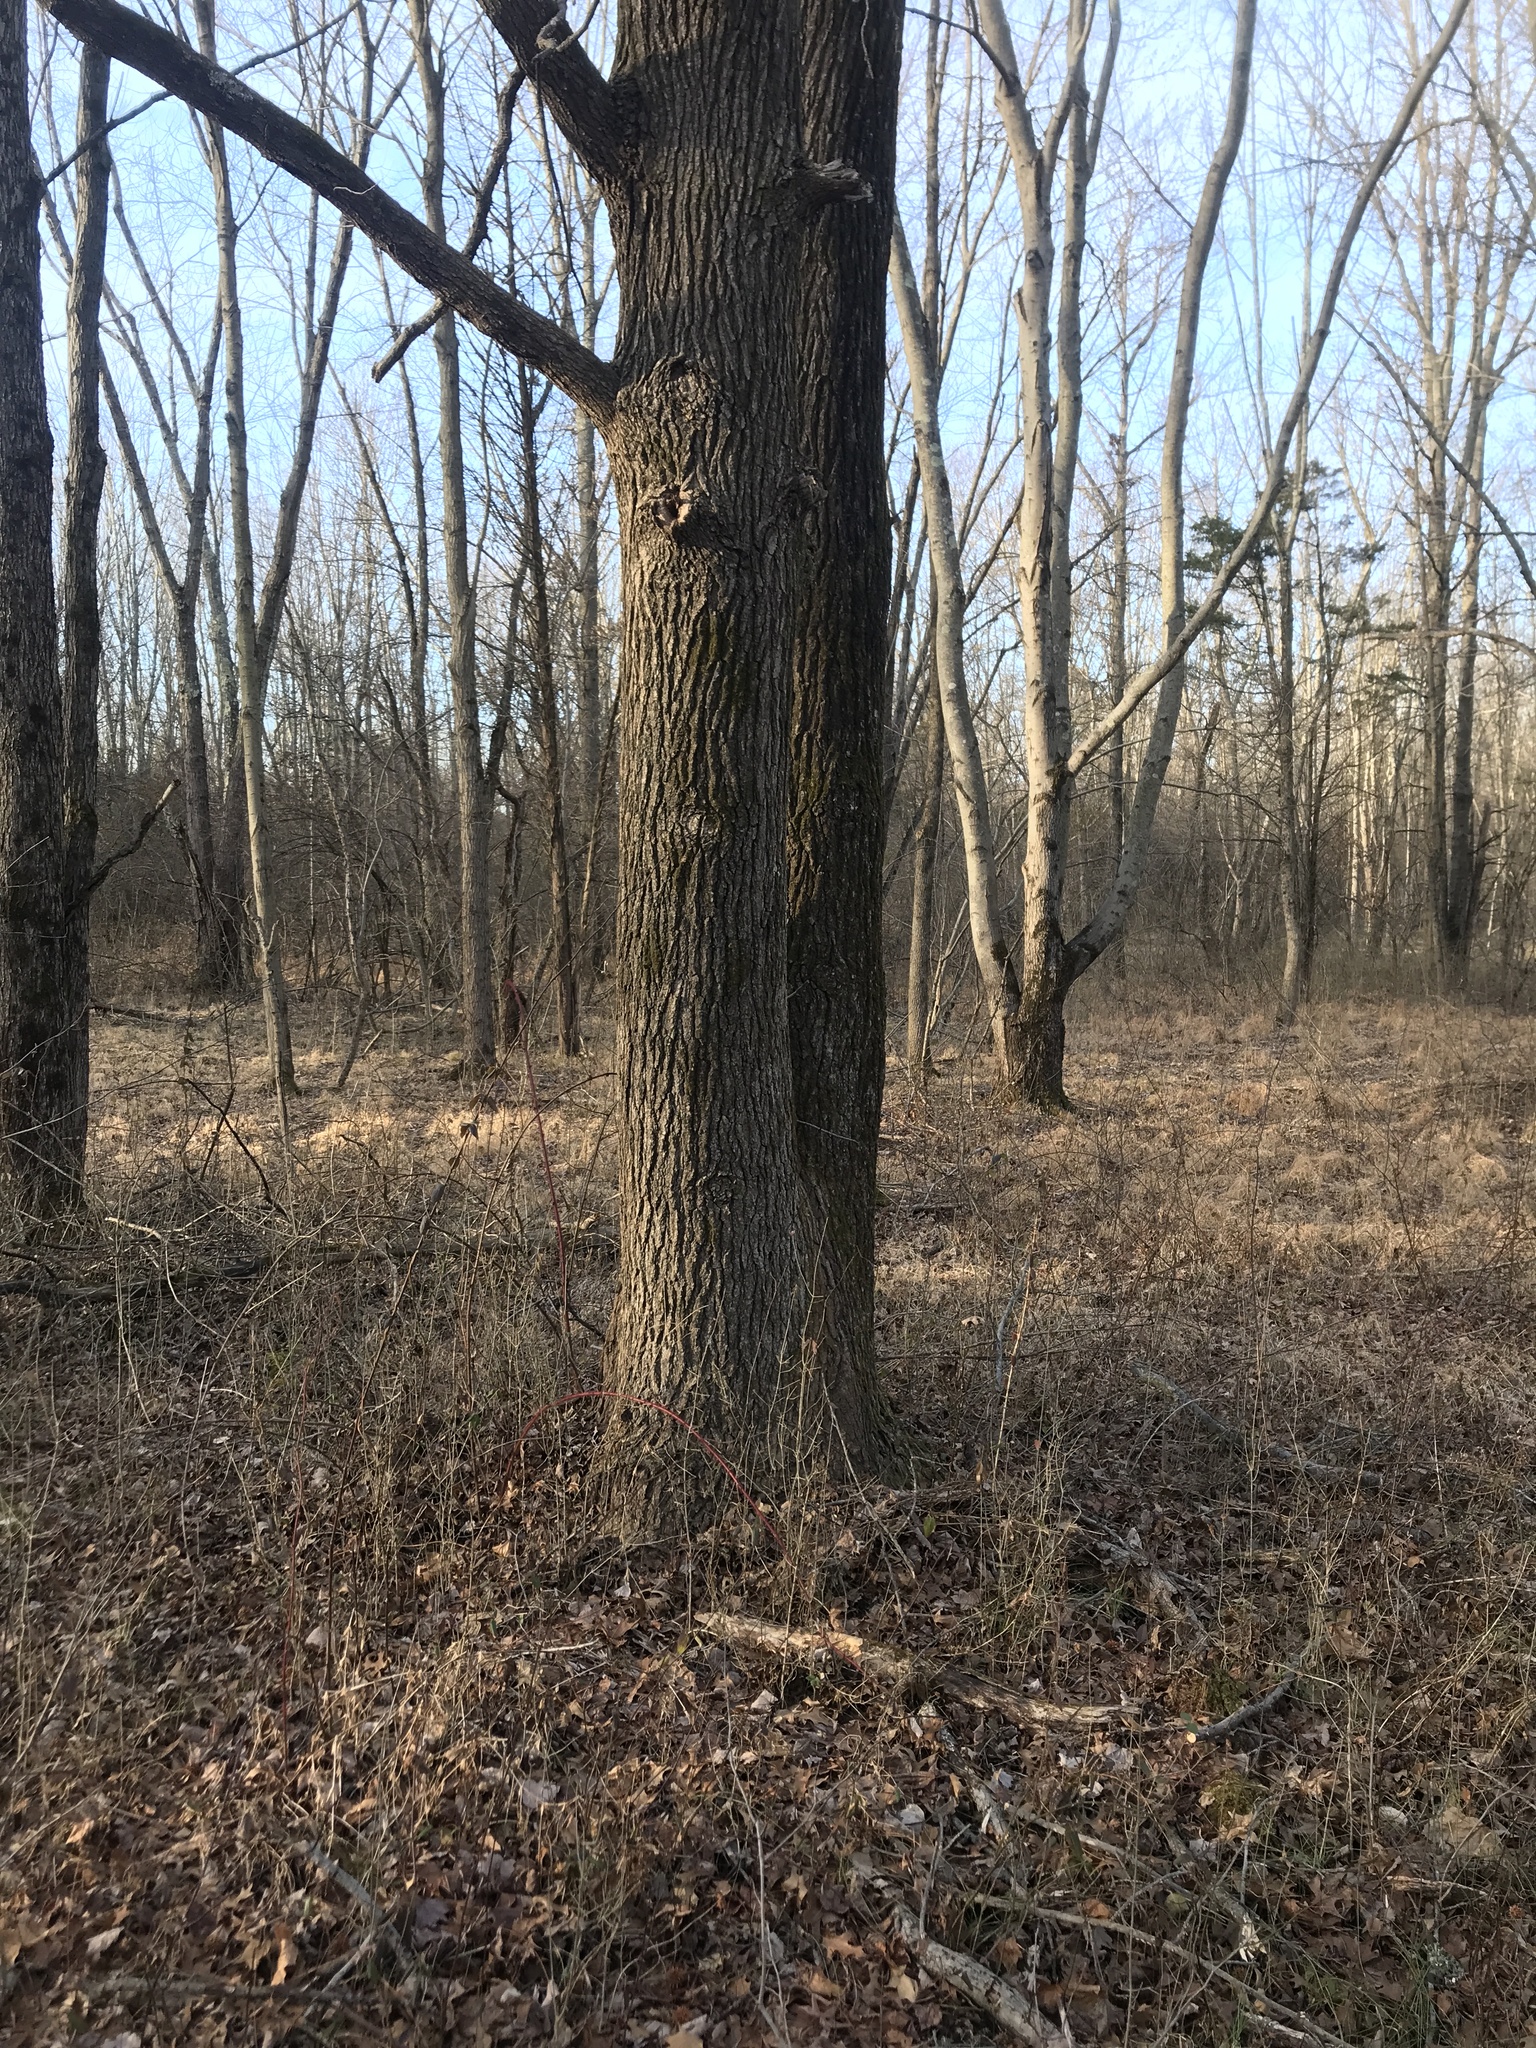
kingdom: Plantae
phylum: Tracheophyta
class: Magnoliopsida
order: Saxifragales
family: Altingiaceae
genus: Liquidambar
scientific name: Liquidambar styraciflua
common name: Sweet gum
